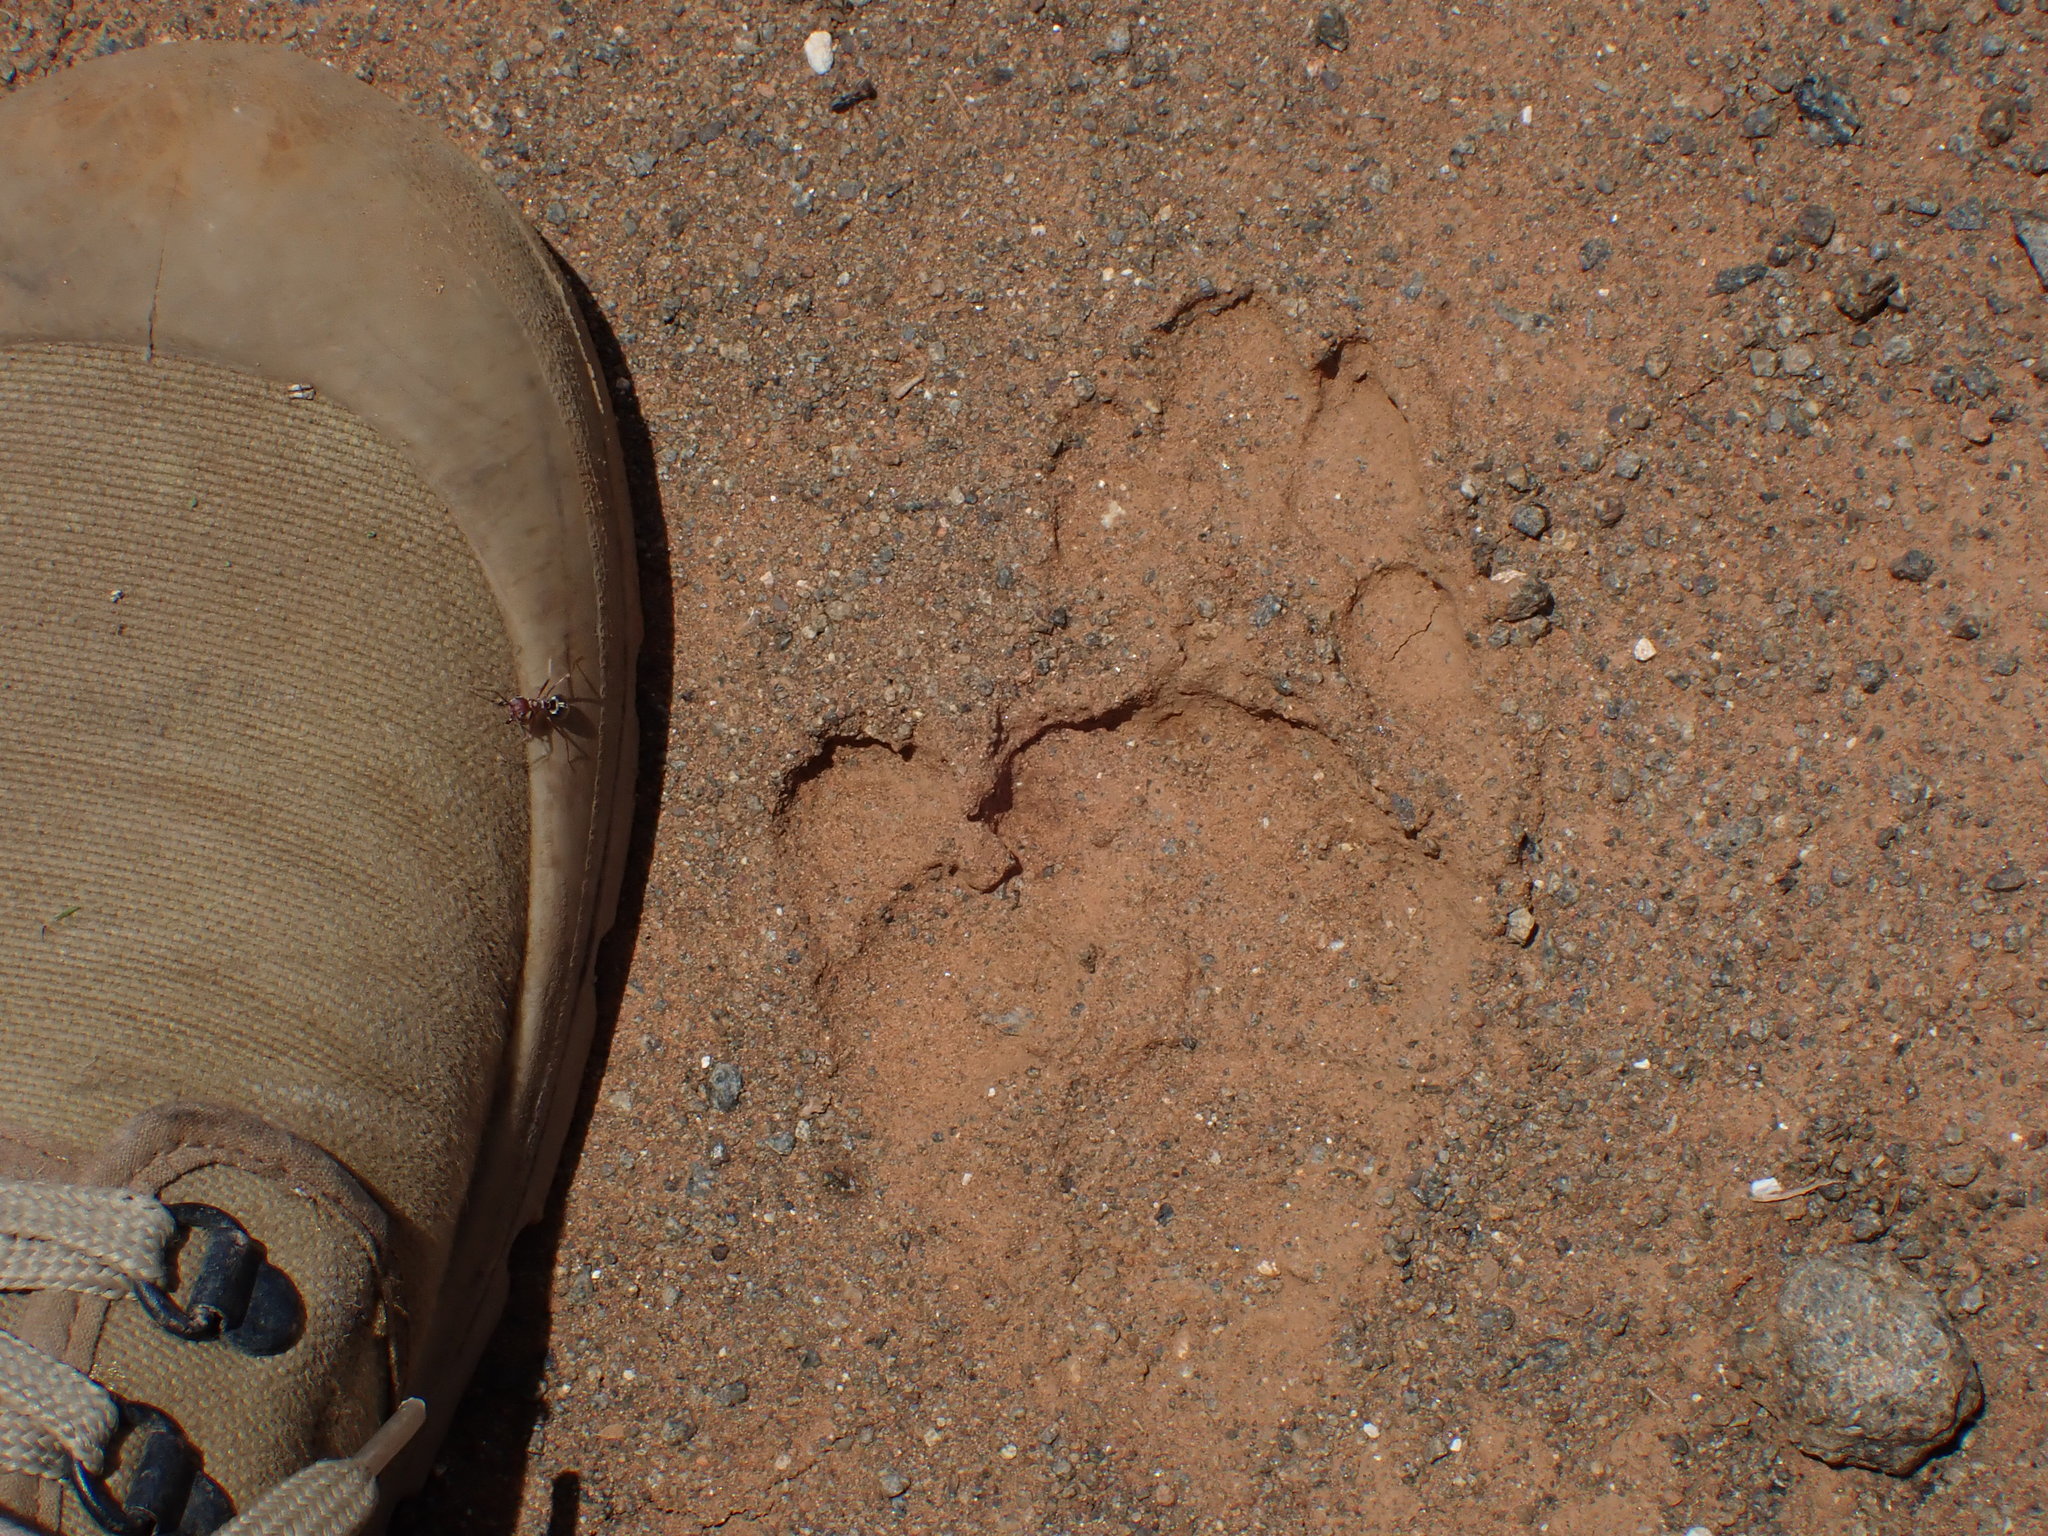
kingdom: Animalia
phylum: Chordata
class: Mammalia
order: Primates
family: Cercopithecidae
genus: Papio
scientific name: Papio ursinus
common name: Chacma baboon
